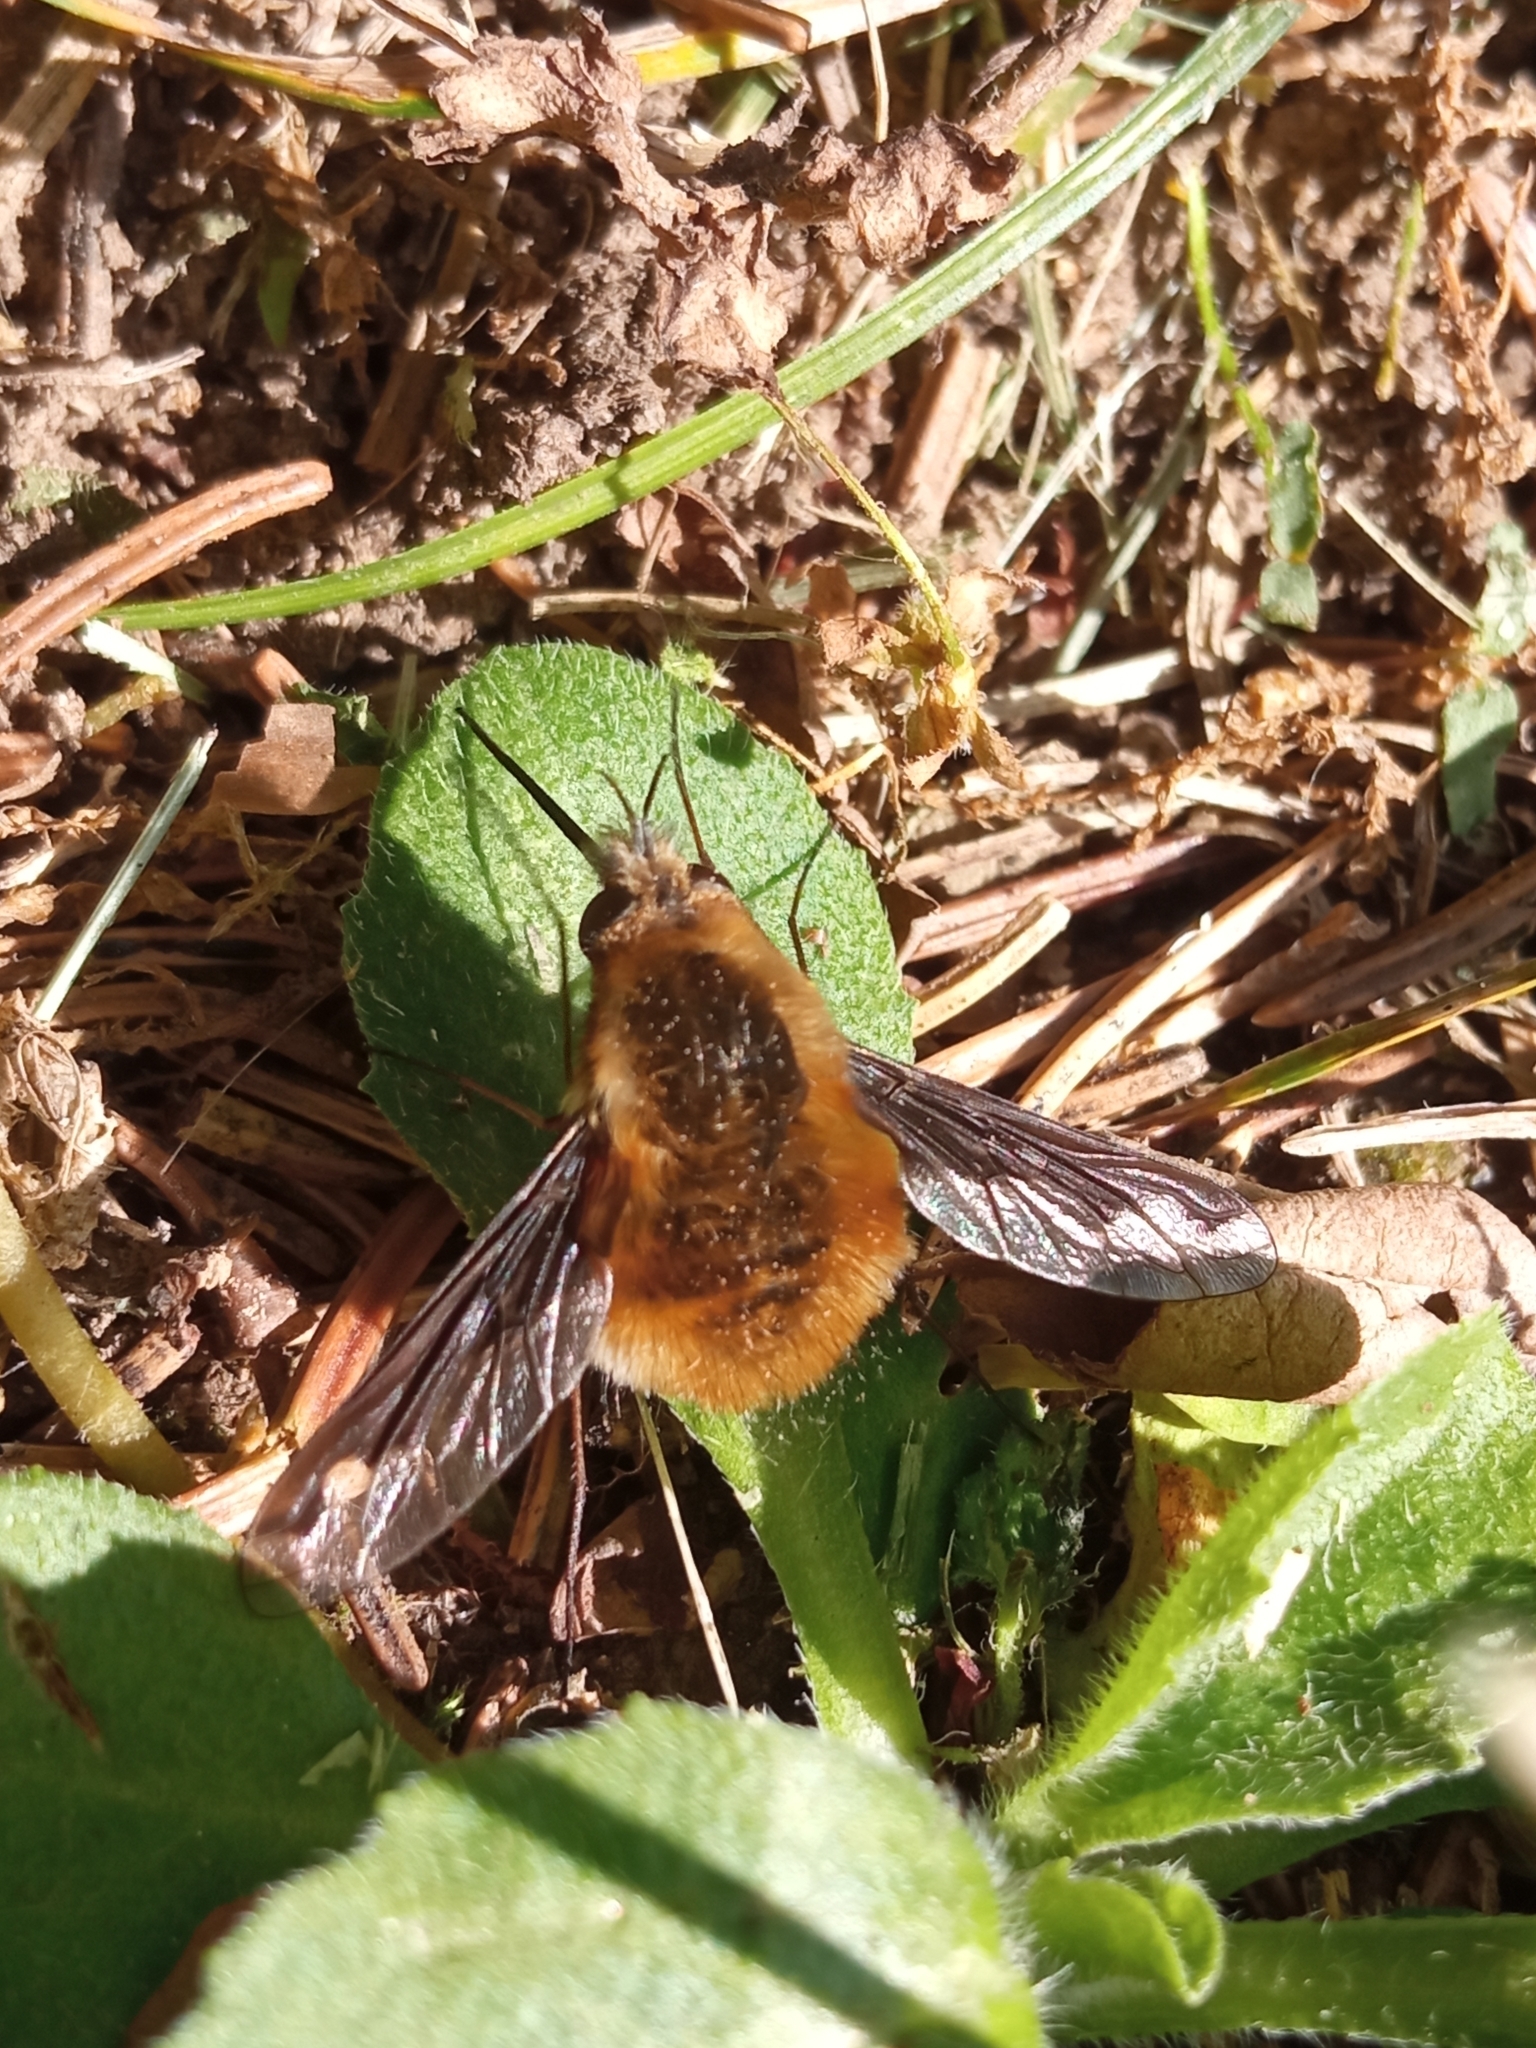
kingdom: Animalia
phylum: Arthropoda
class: Insecta
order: Diptera
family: Bombyliidae
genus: Bombylius
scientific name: Bombylius major
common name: Bee fly
